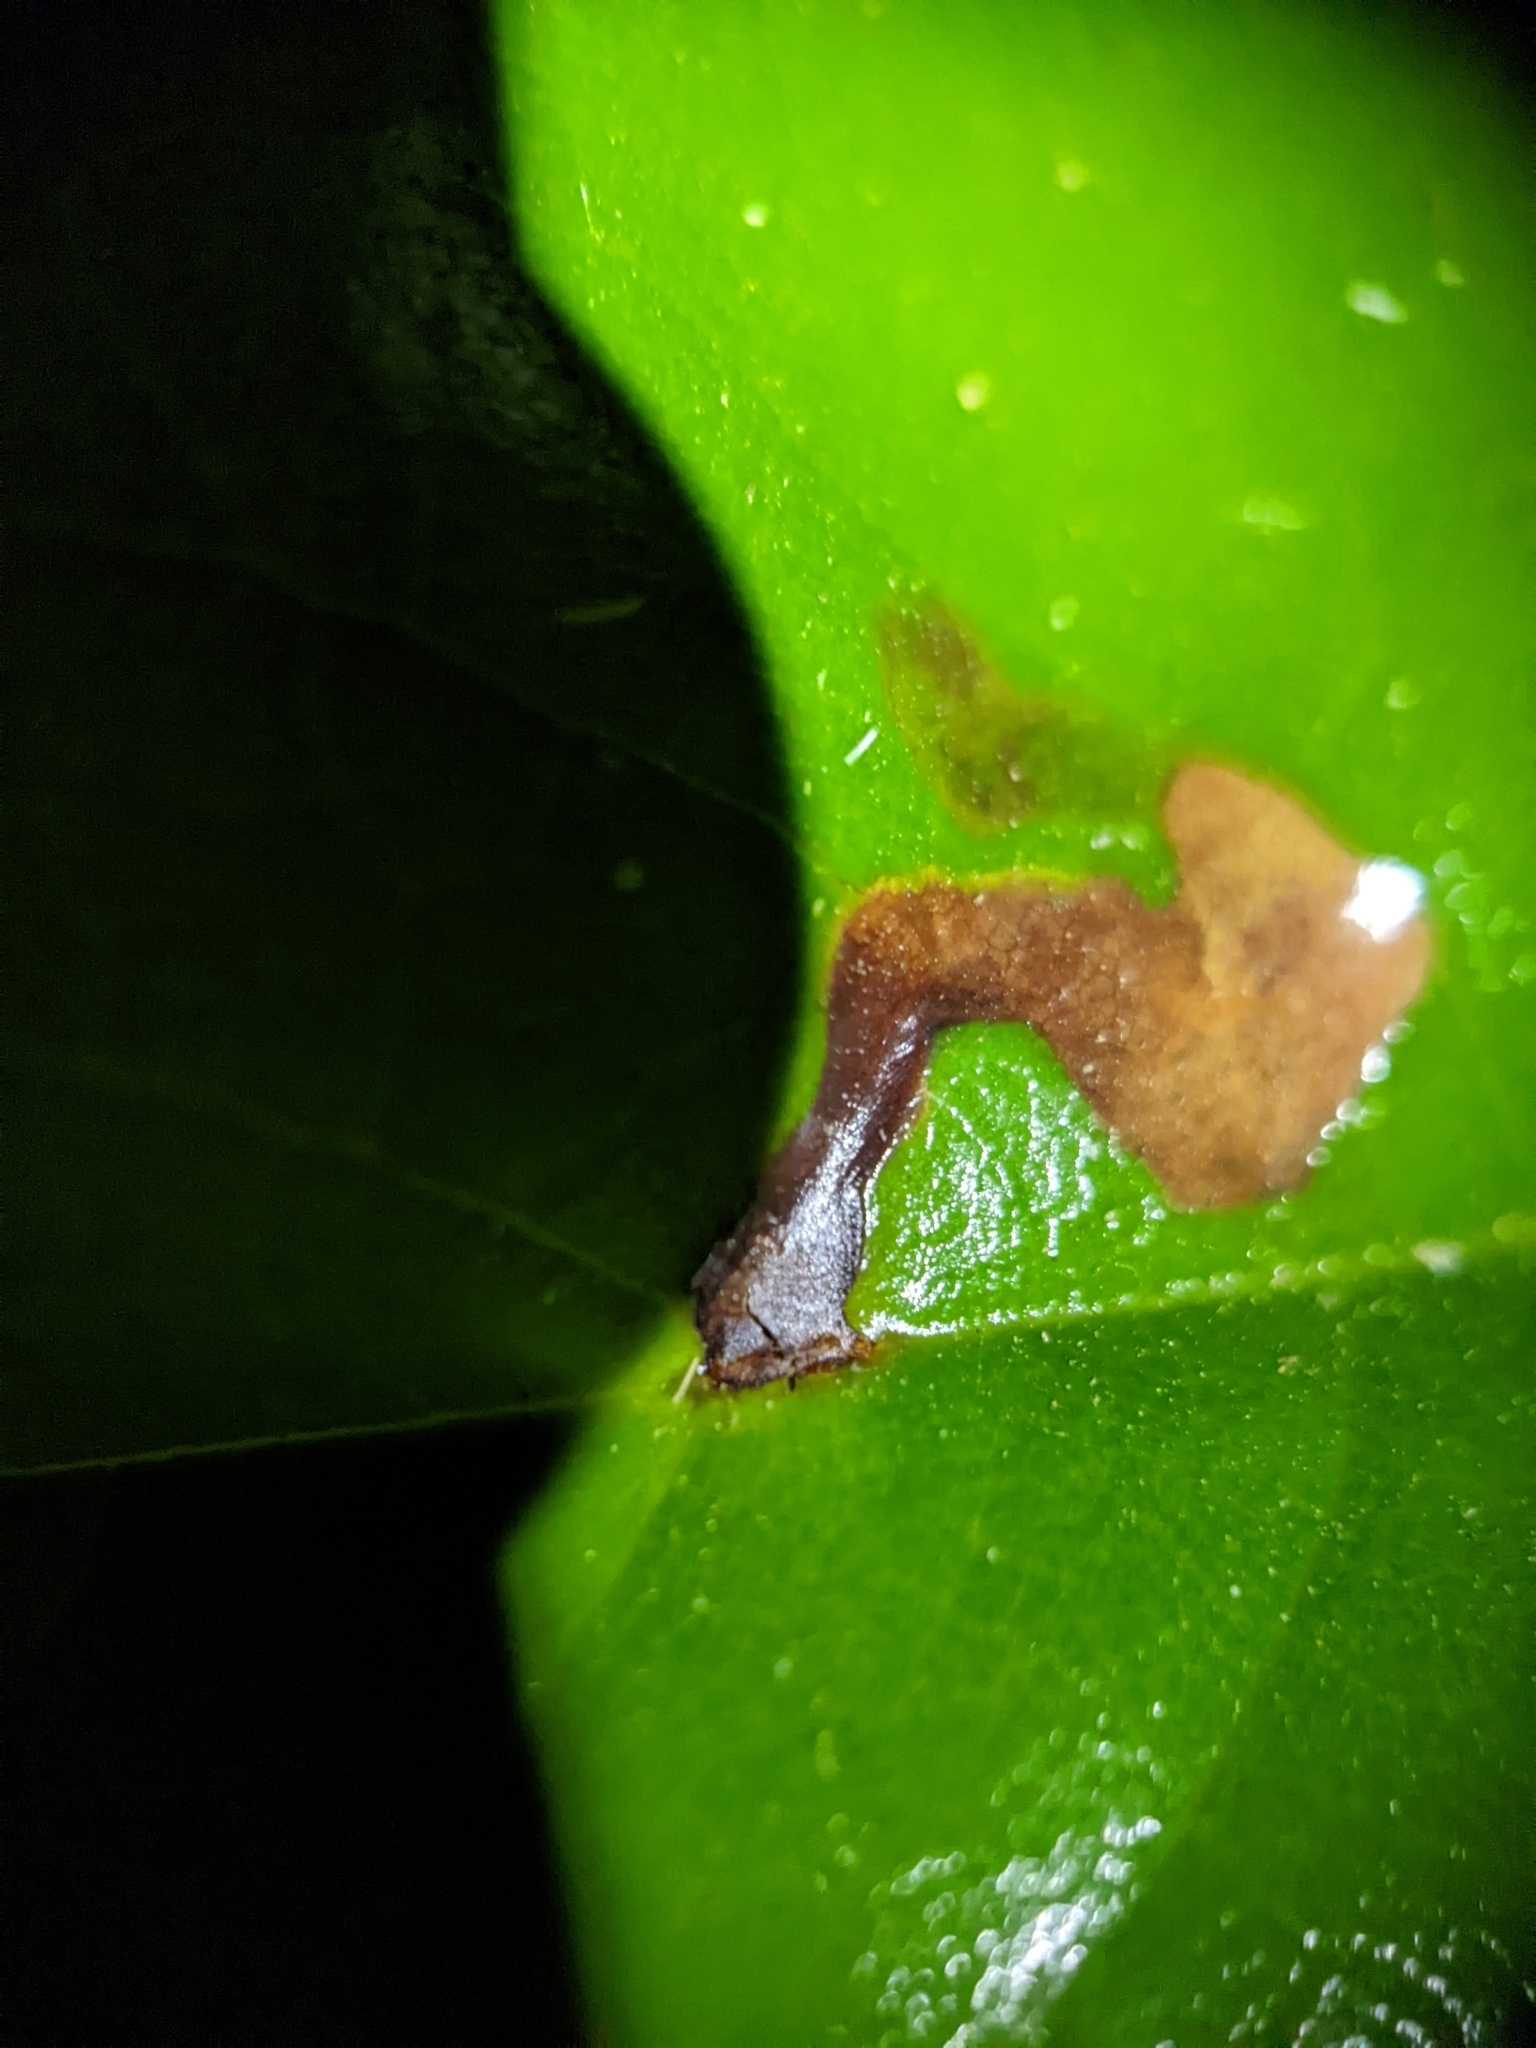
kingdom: Animalia
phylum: Arthropoda
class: Insecta
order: Coleoptera
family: Curculionidae
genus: Odontopus
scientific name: Odontopus calceatus
